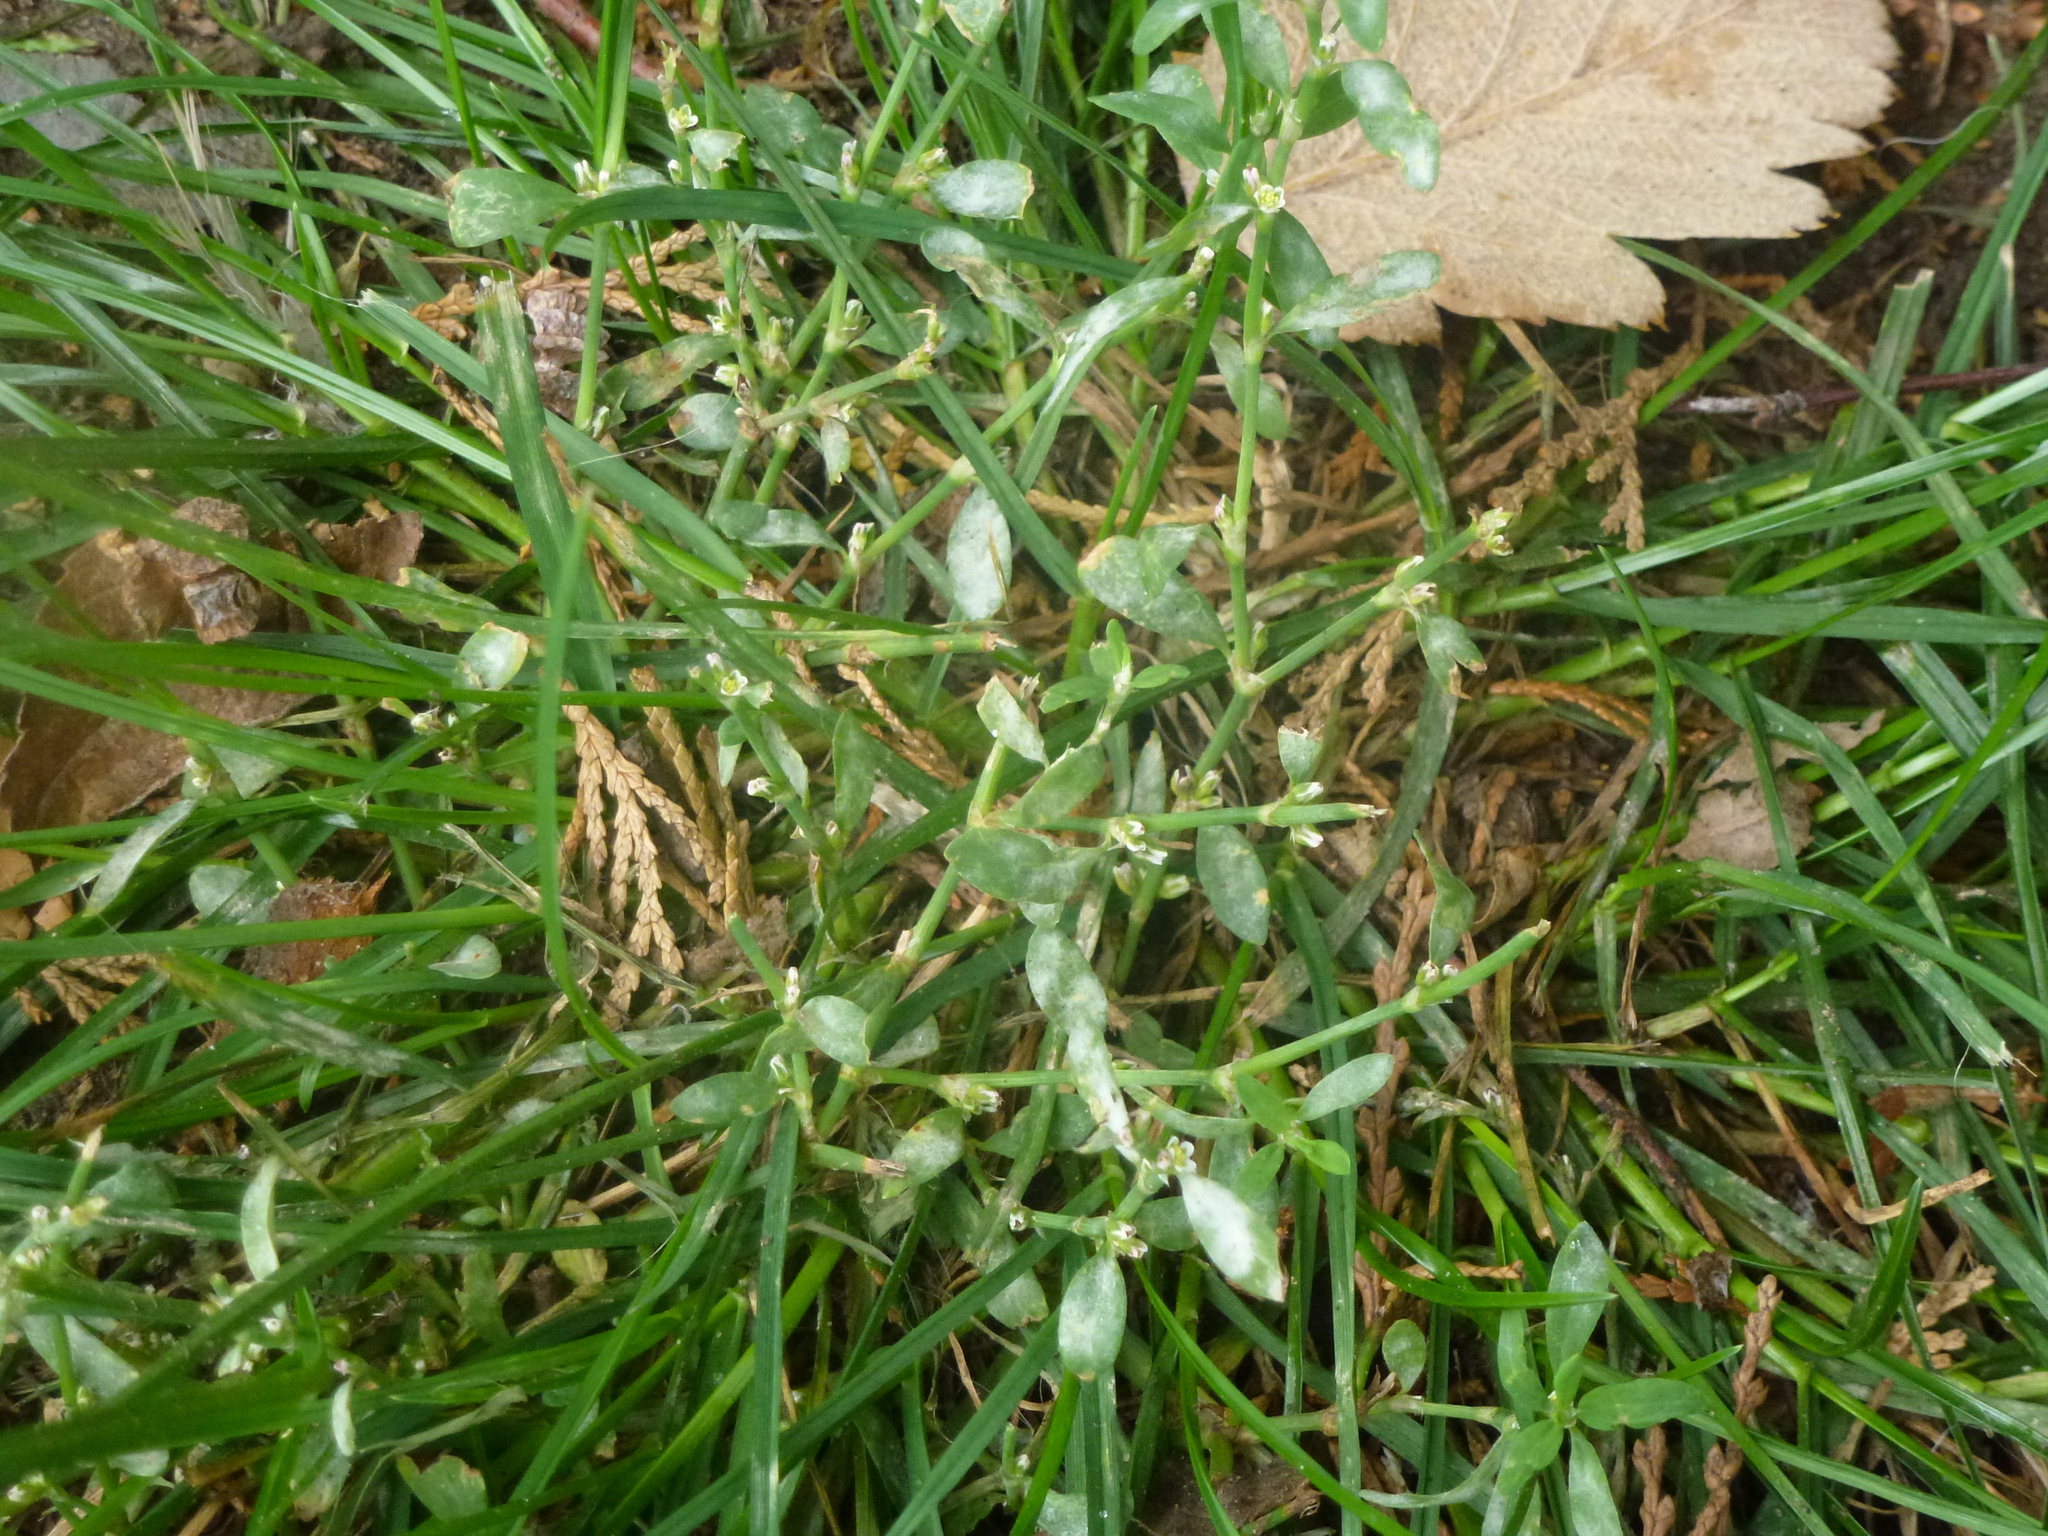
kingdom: Fungi
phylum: Ascomycota
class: Leotiomycetes
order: Helotiales
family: Erysiphaceae
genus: Erysiphe
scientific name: Erysiphe polygoni
